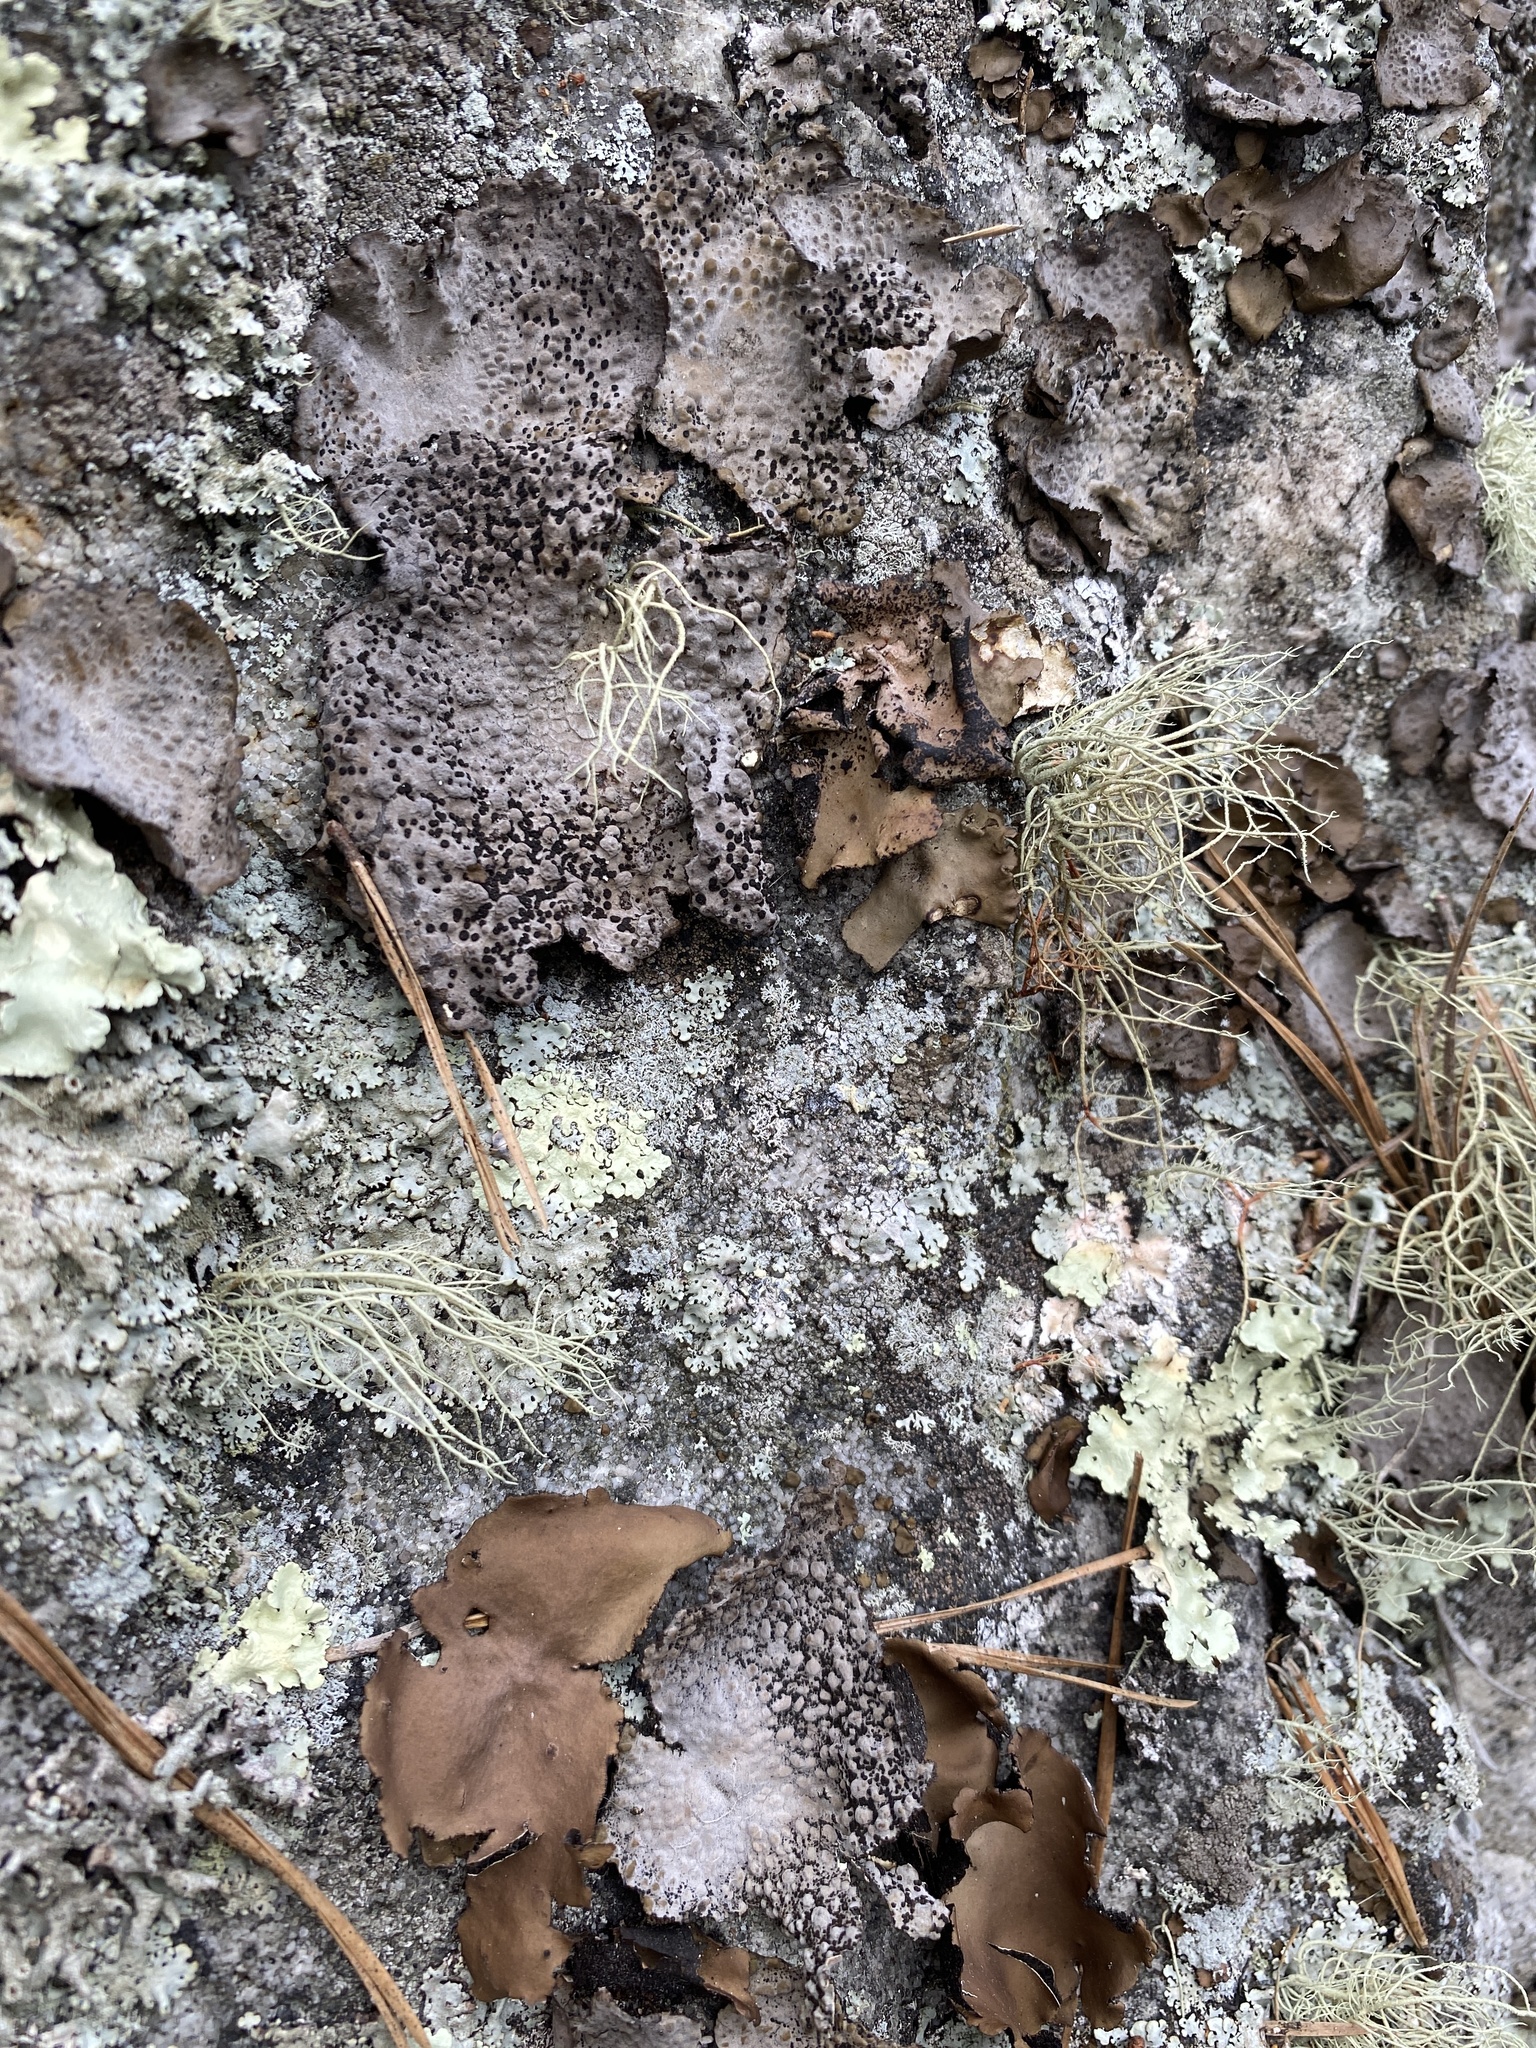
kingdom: Fungi
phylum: Ascomycota
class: Lecanoromycetes
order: Umbilicariales
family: Umbilicariaceae
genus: Lasallia
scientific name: Lasallia papulosa
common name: Common toadskin lichen
